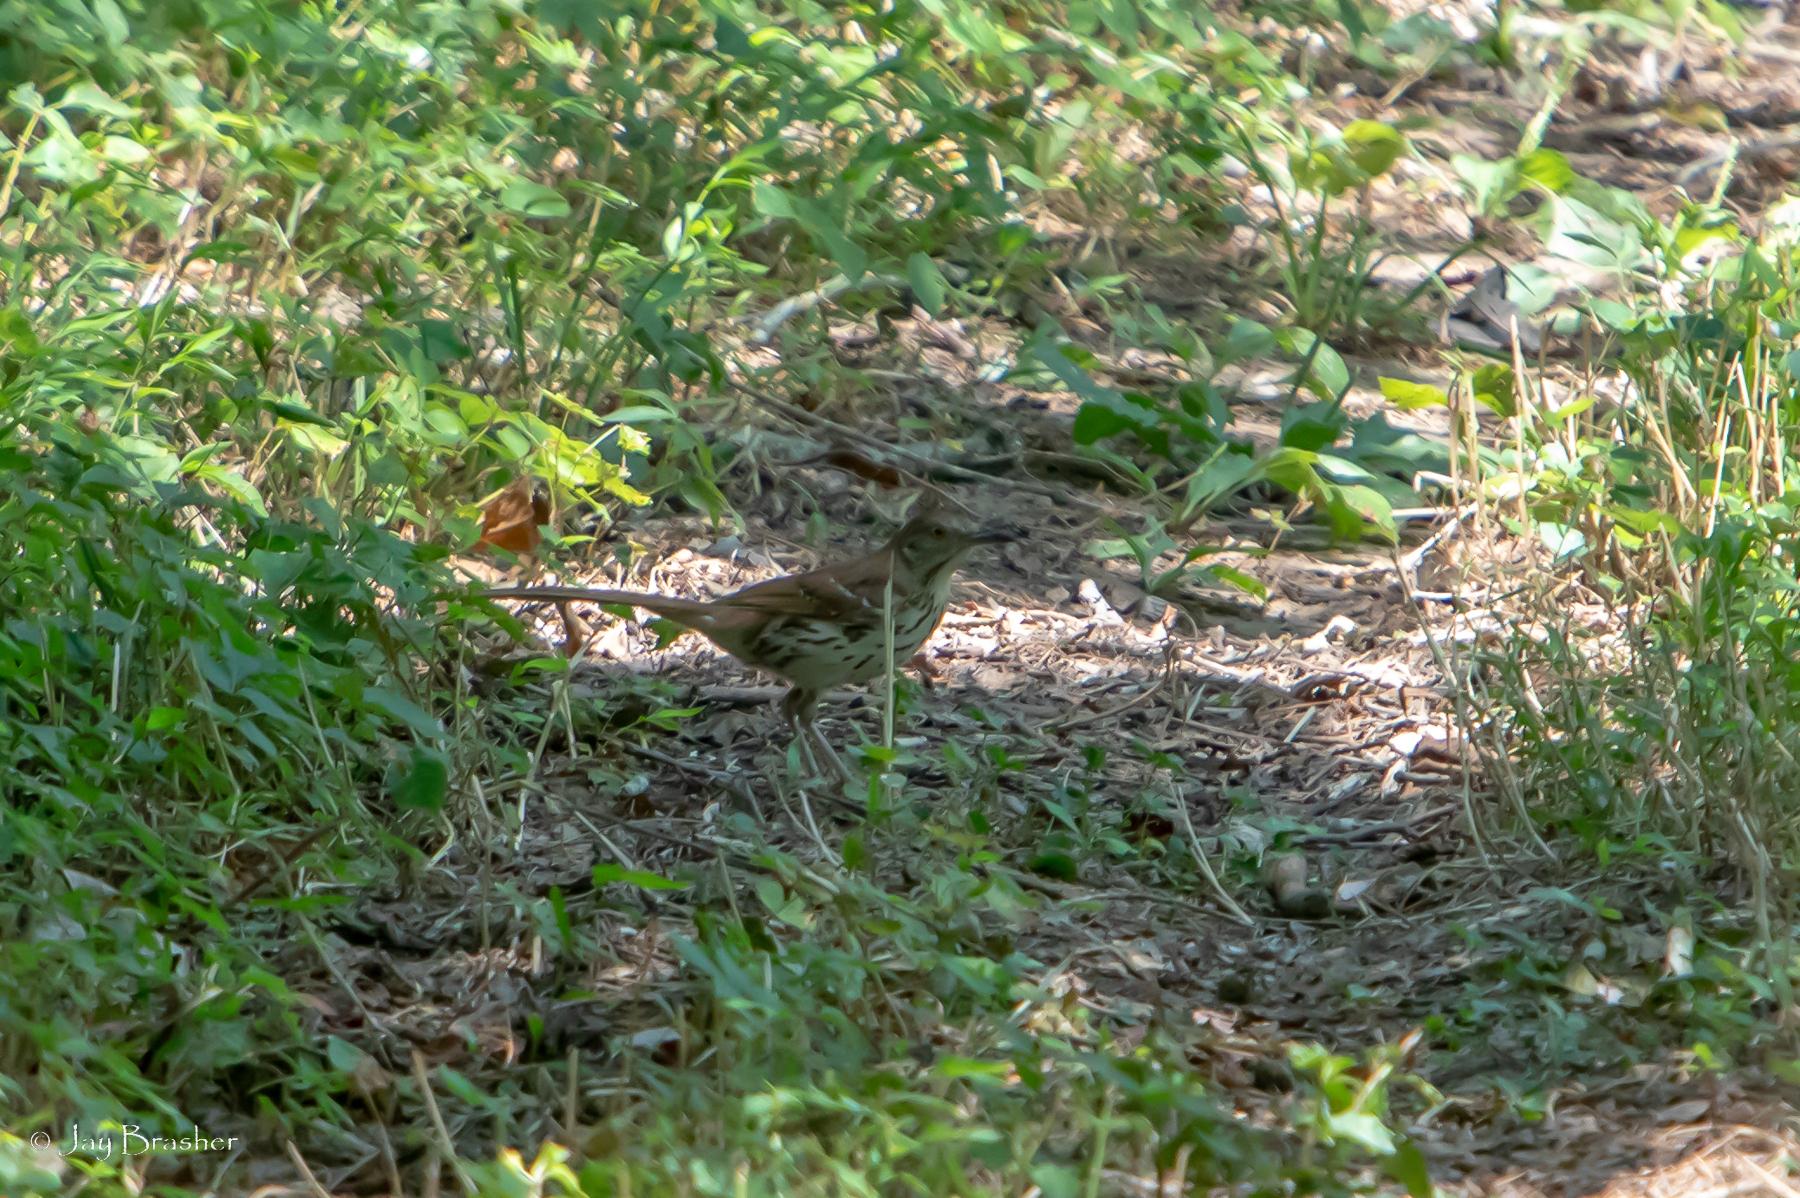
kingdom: Animalia
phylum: Chordata
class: Aves
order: Passeriformes
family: Mimidae
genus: Toxostoma
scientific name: Toxostoma rufum
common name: Brown thrasher
